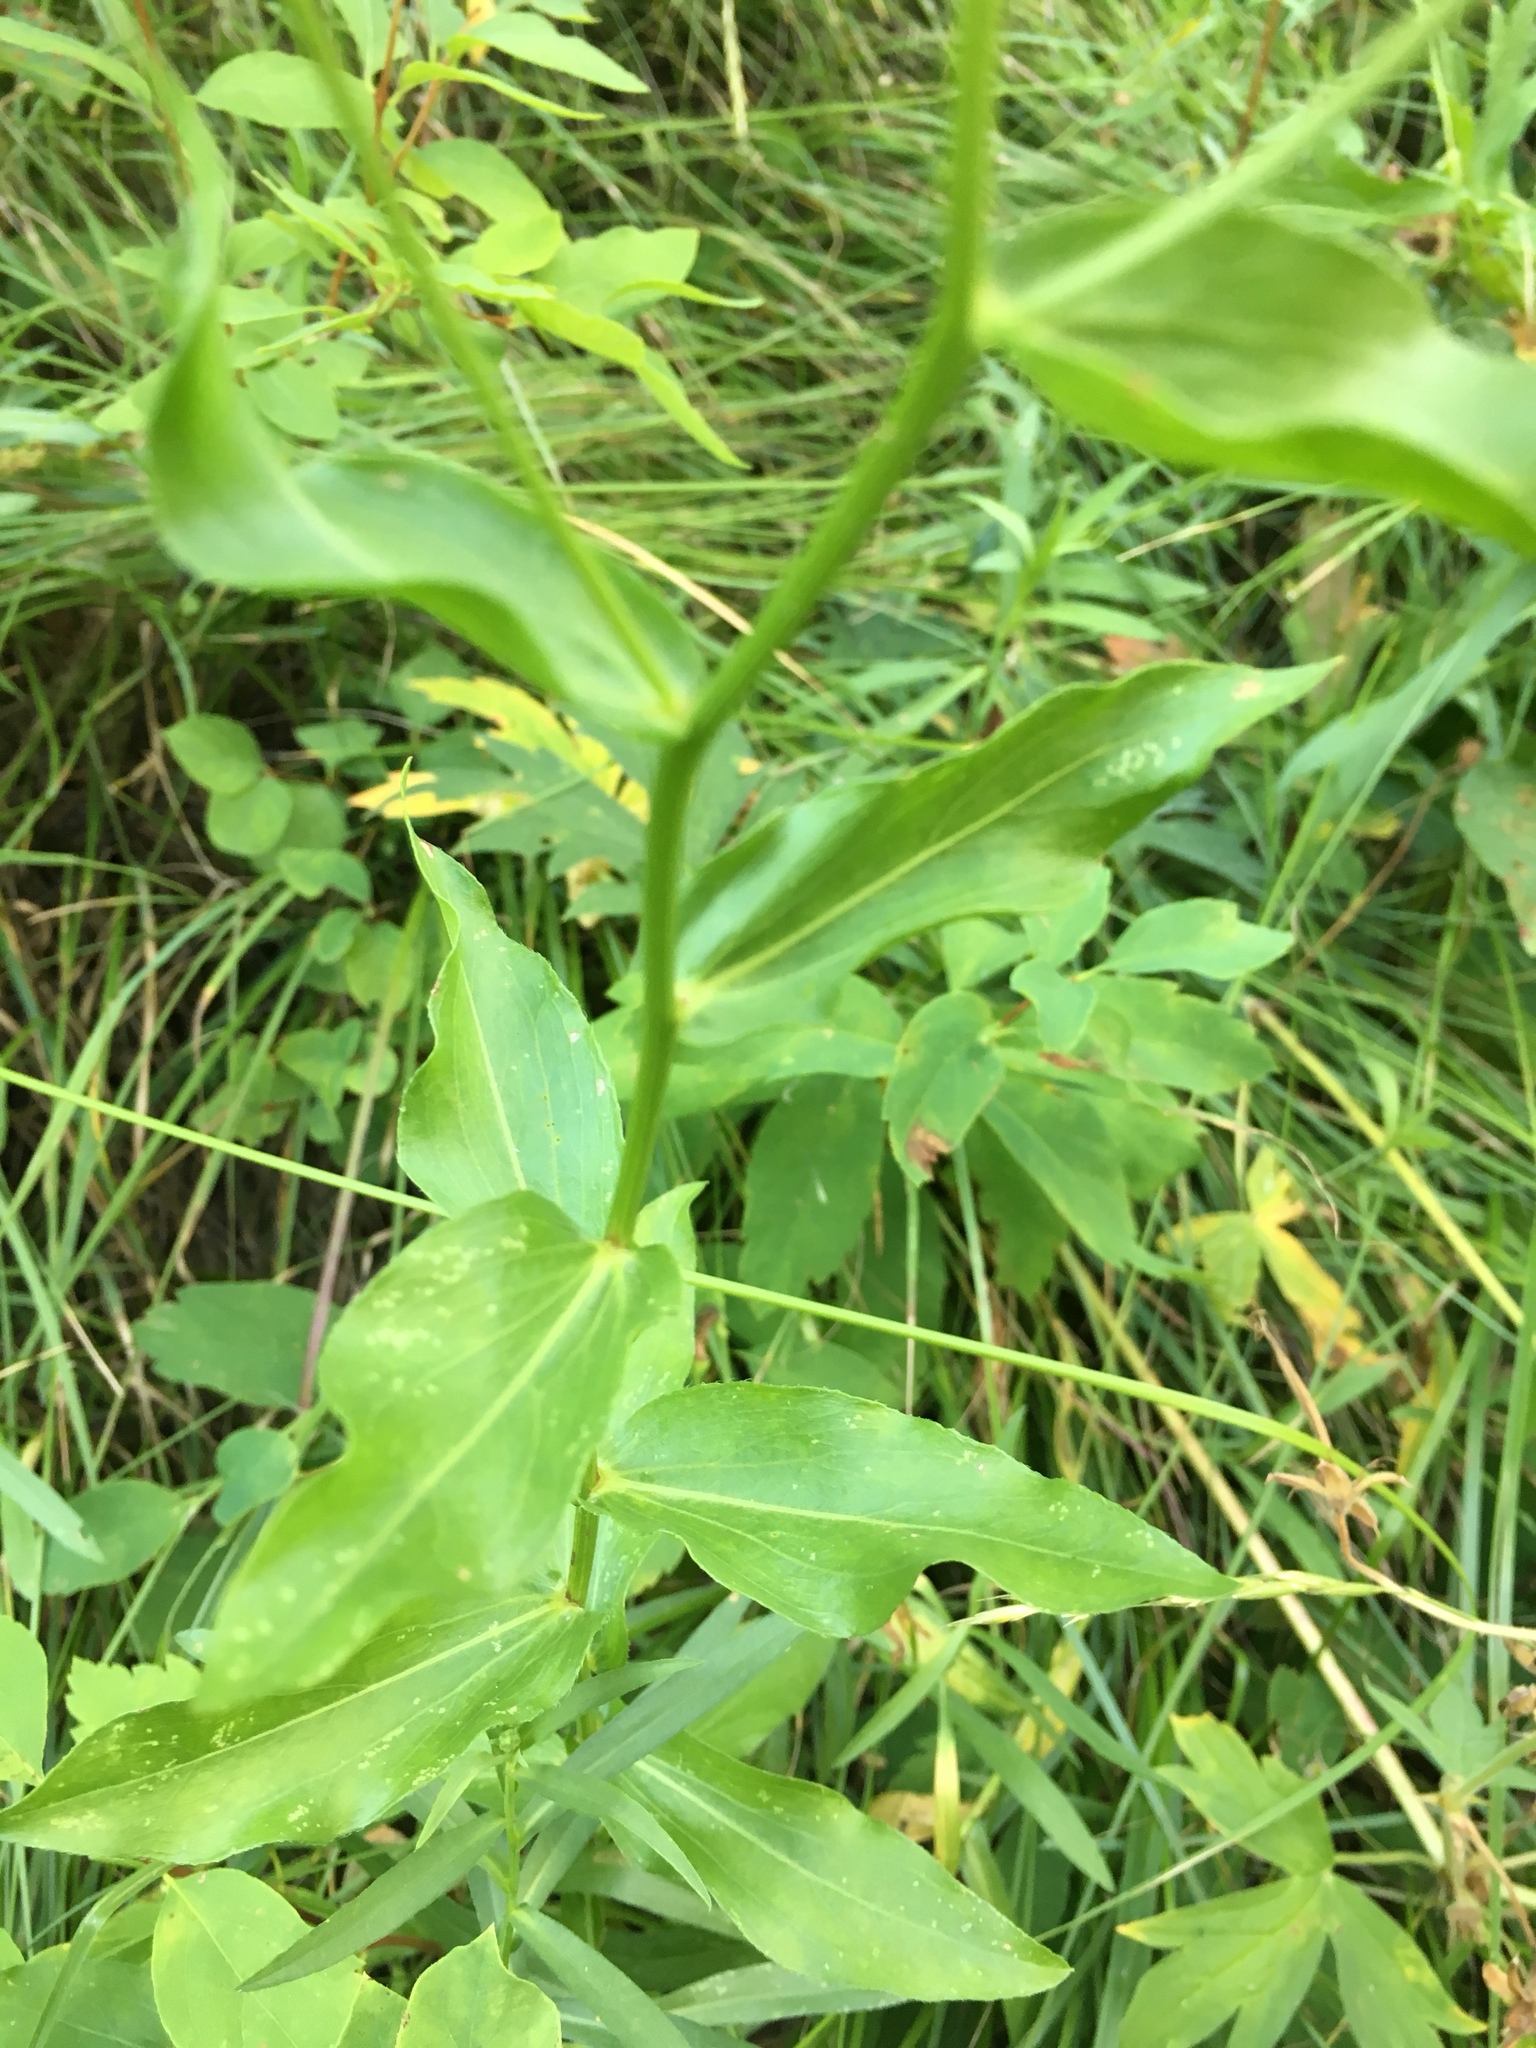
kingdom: Plantae
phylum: Tracheophyta
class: Magnoliopsida
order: Asterales
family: Asteraceae
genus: Erigeron
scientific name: Erigeron speciosus
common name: Aspen fleabane
